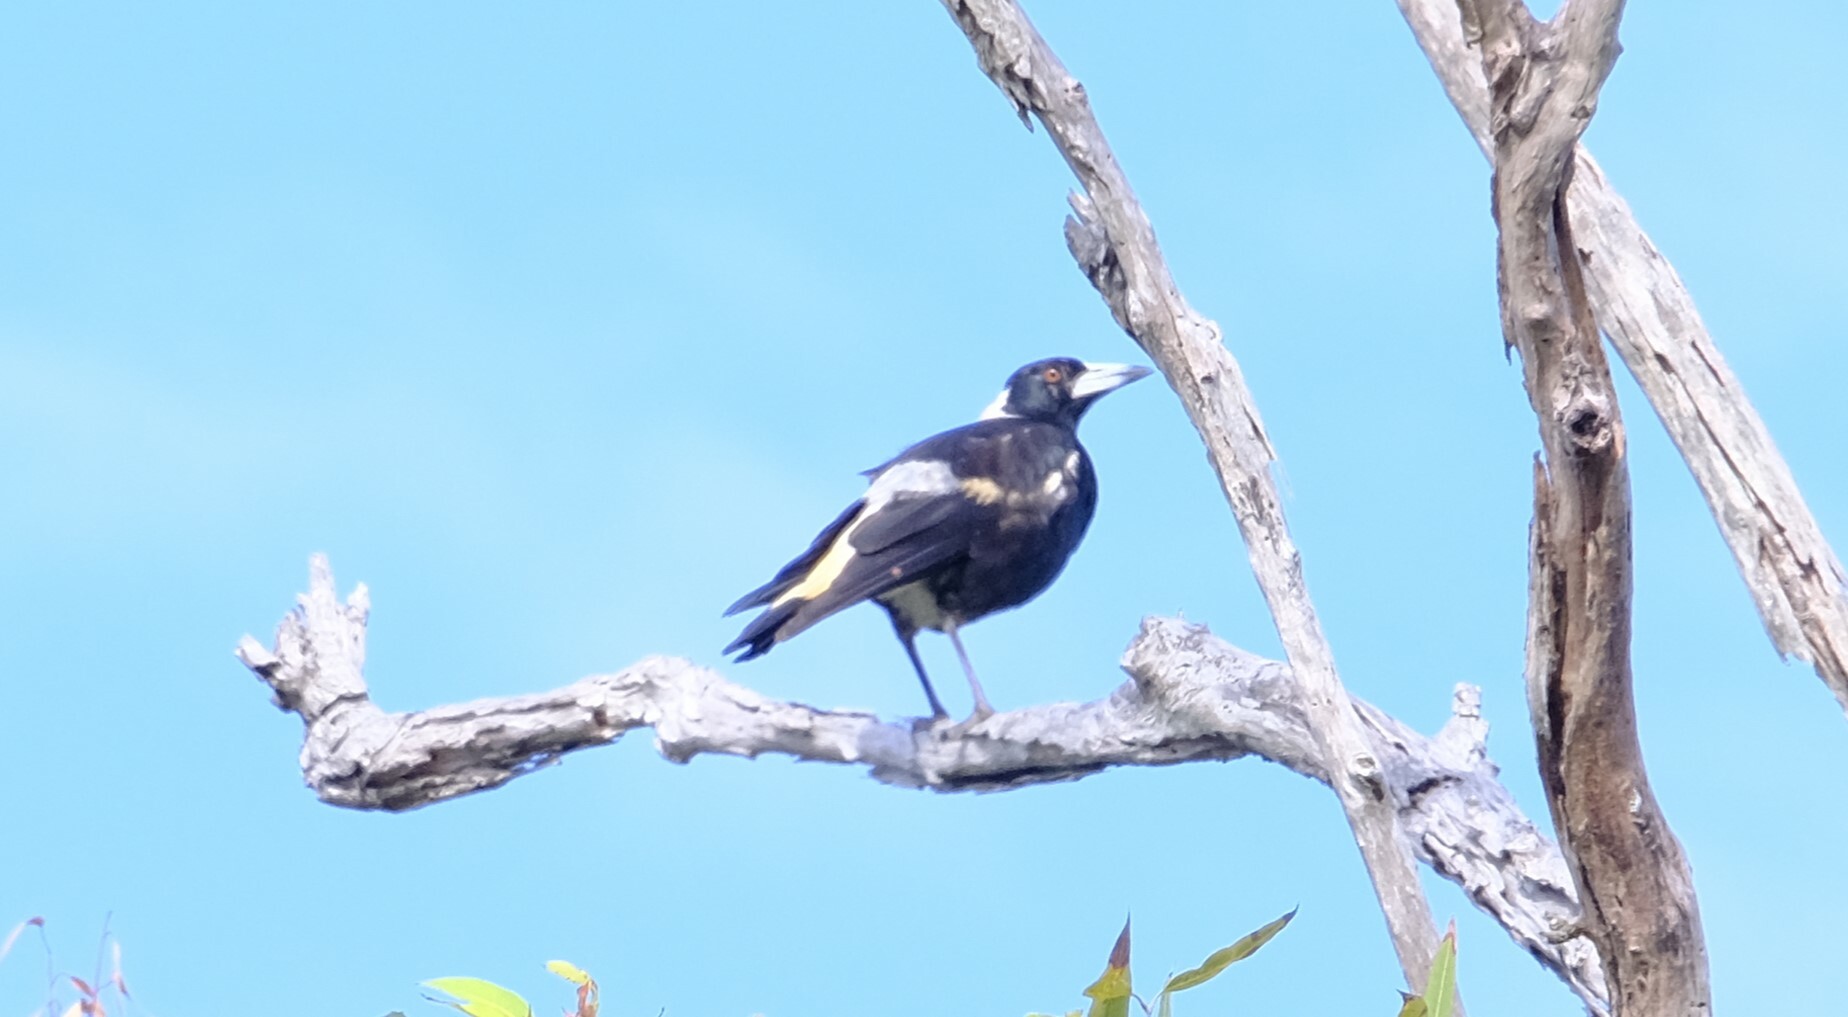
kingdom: Animalia
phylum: Chordata
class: Aves
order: Passeriformes
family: Cracticidae
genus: Gymnorhina
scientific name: Gymnorhina tibicen
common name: Australian magpie
